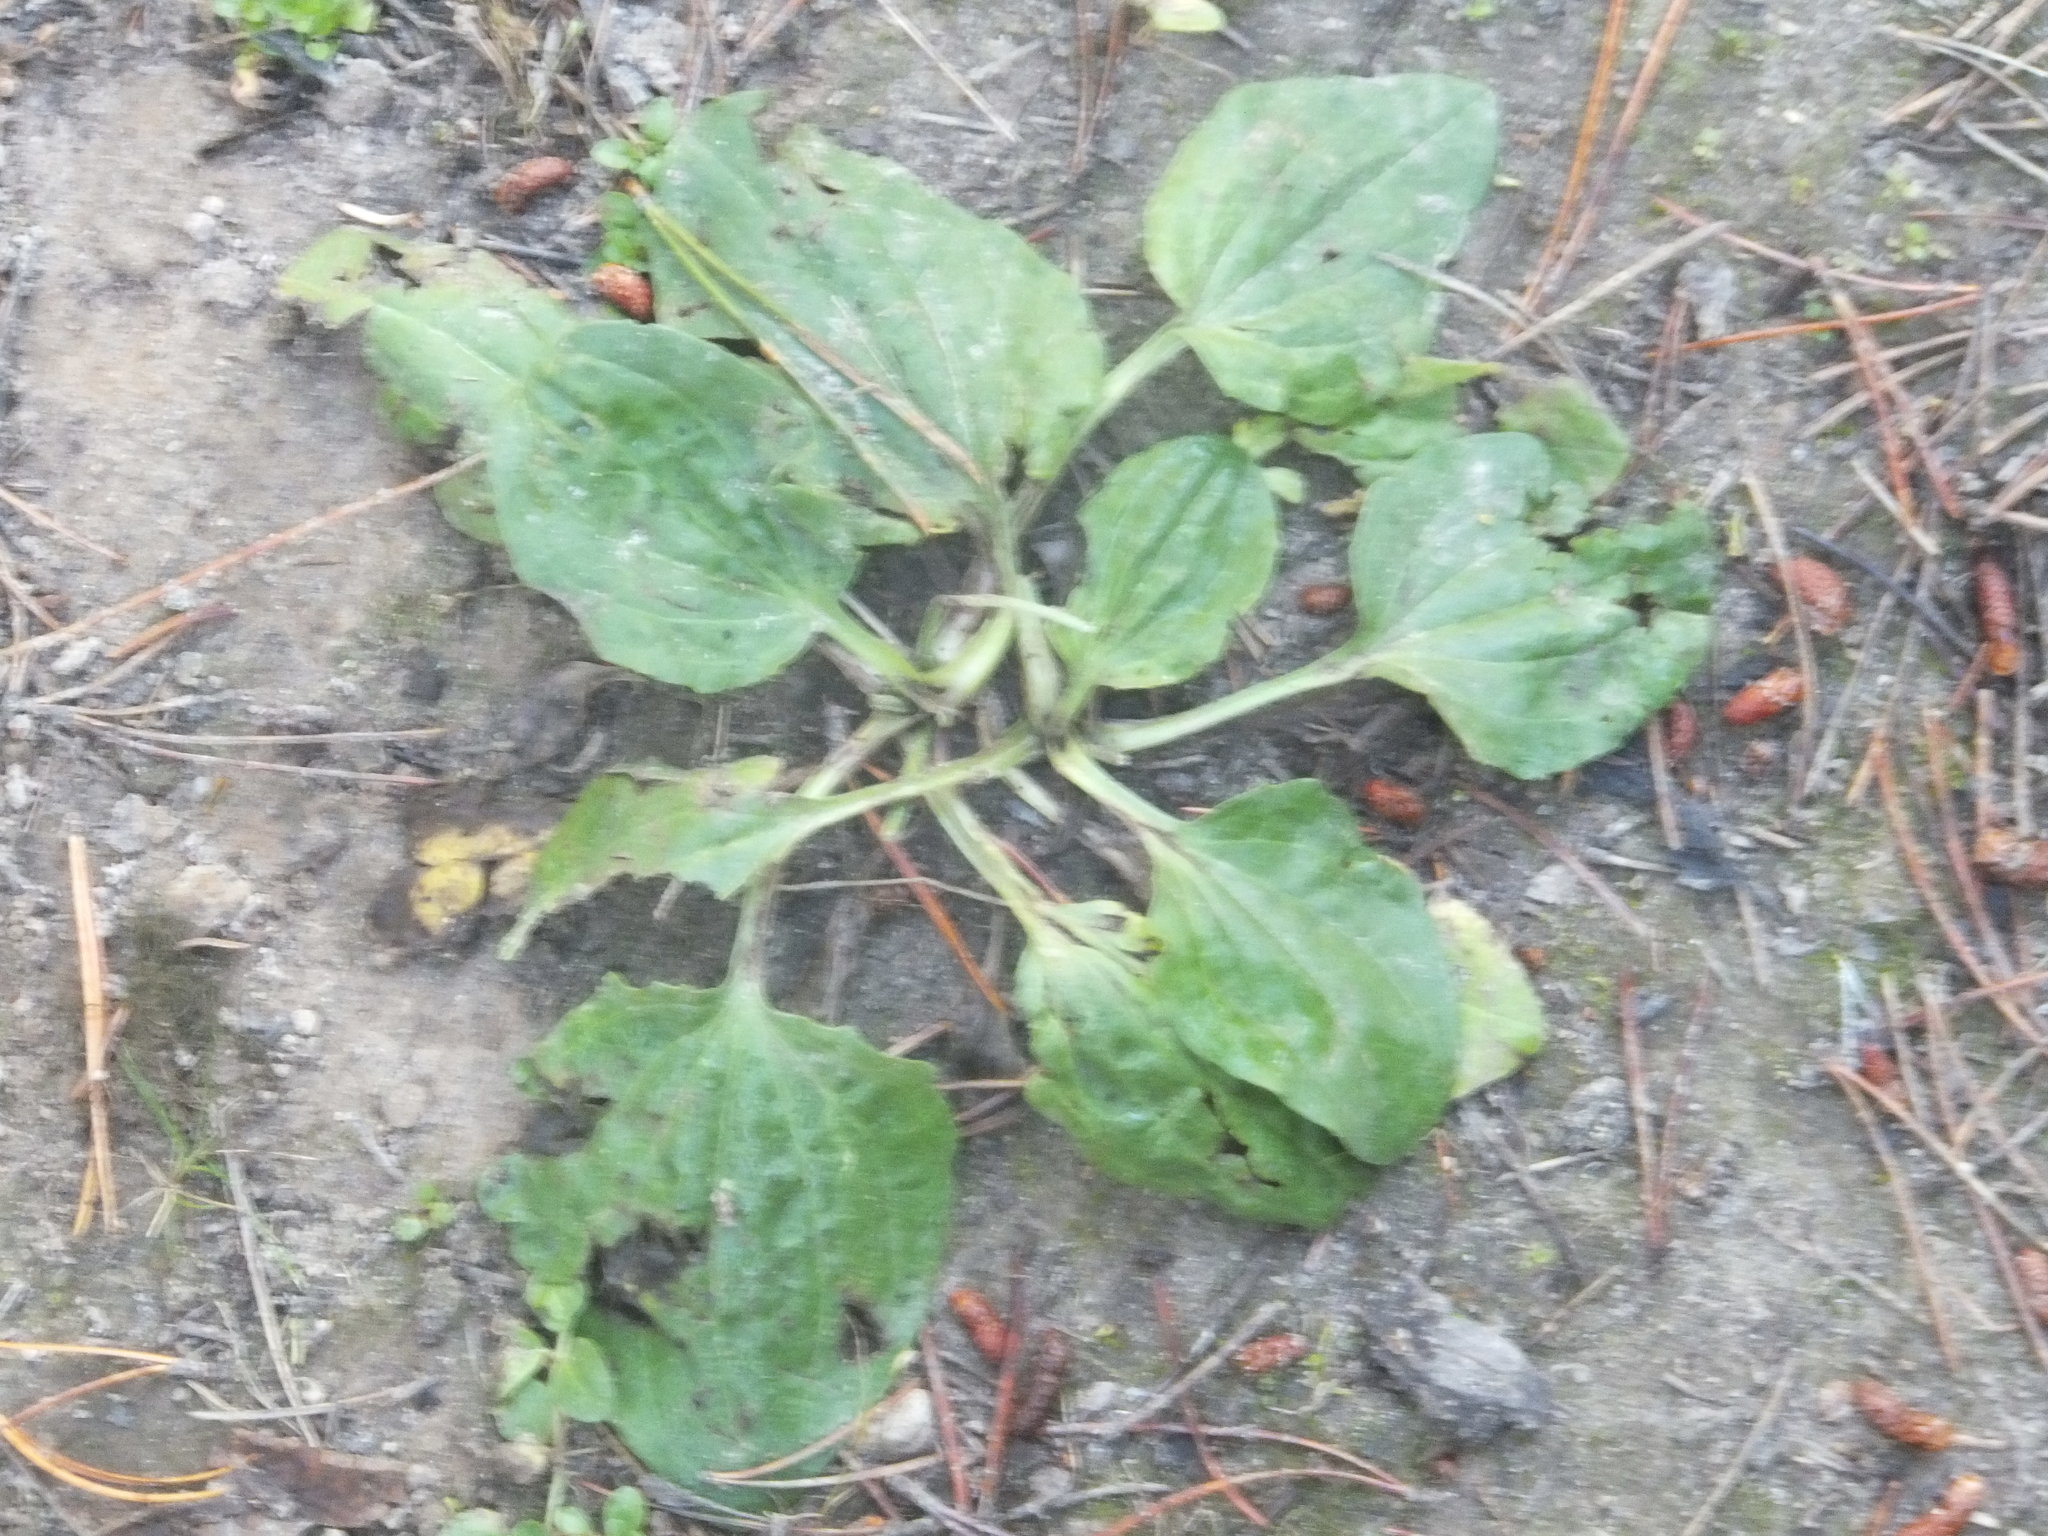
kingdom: Plantae
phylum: Tracheophyta
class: Magnoliopsida
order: Lamiales
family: Plantaginaceae
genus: Plantago
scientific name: Plantago major
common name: Common plantain
